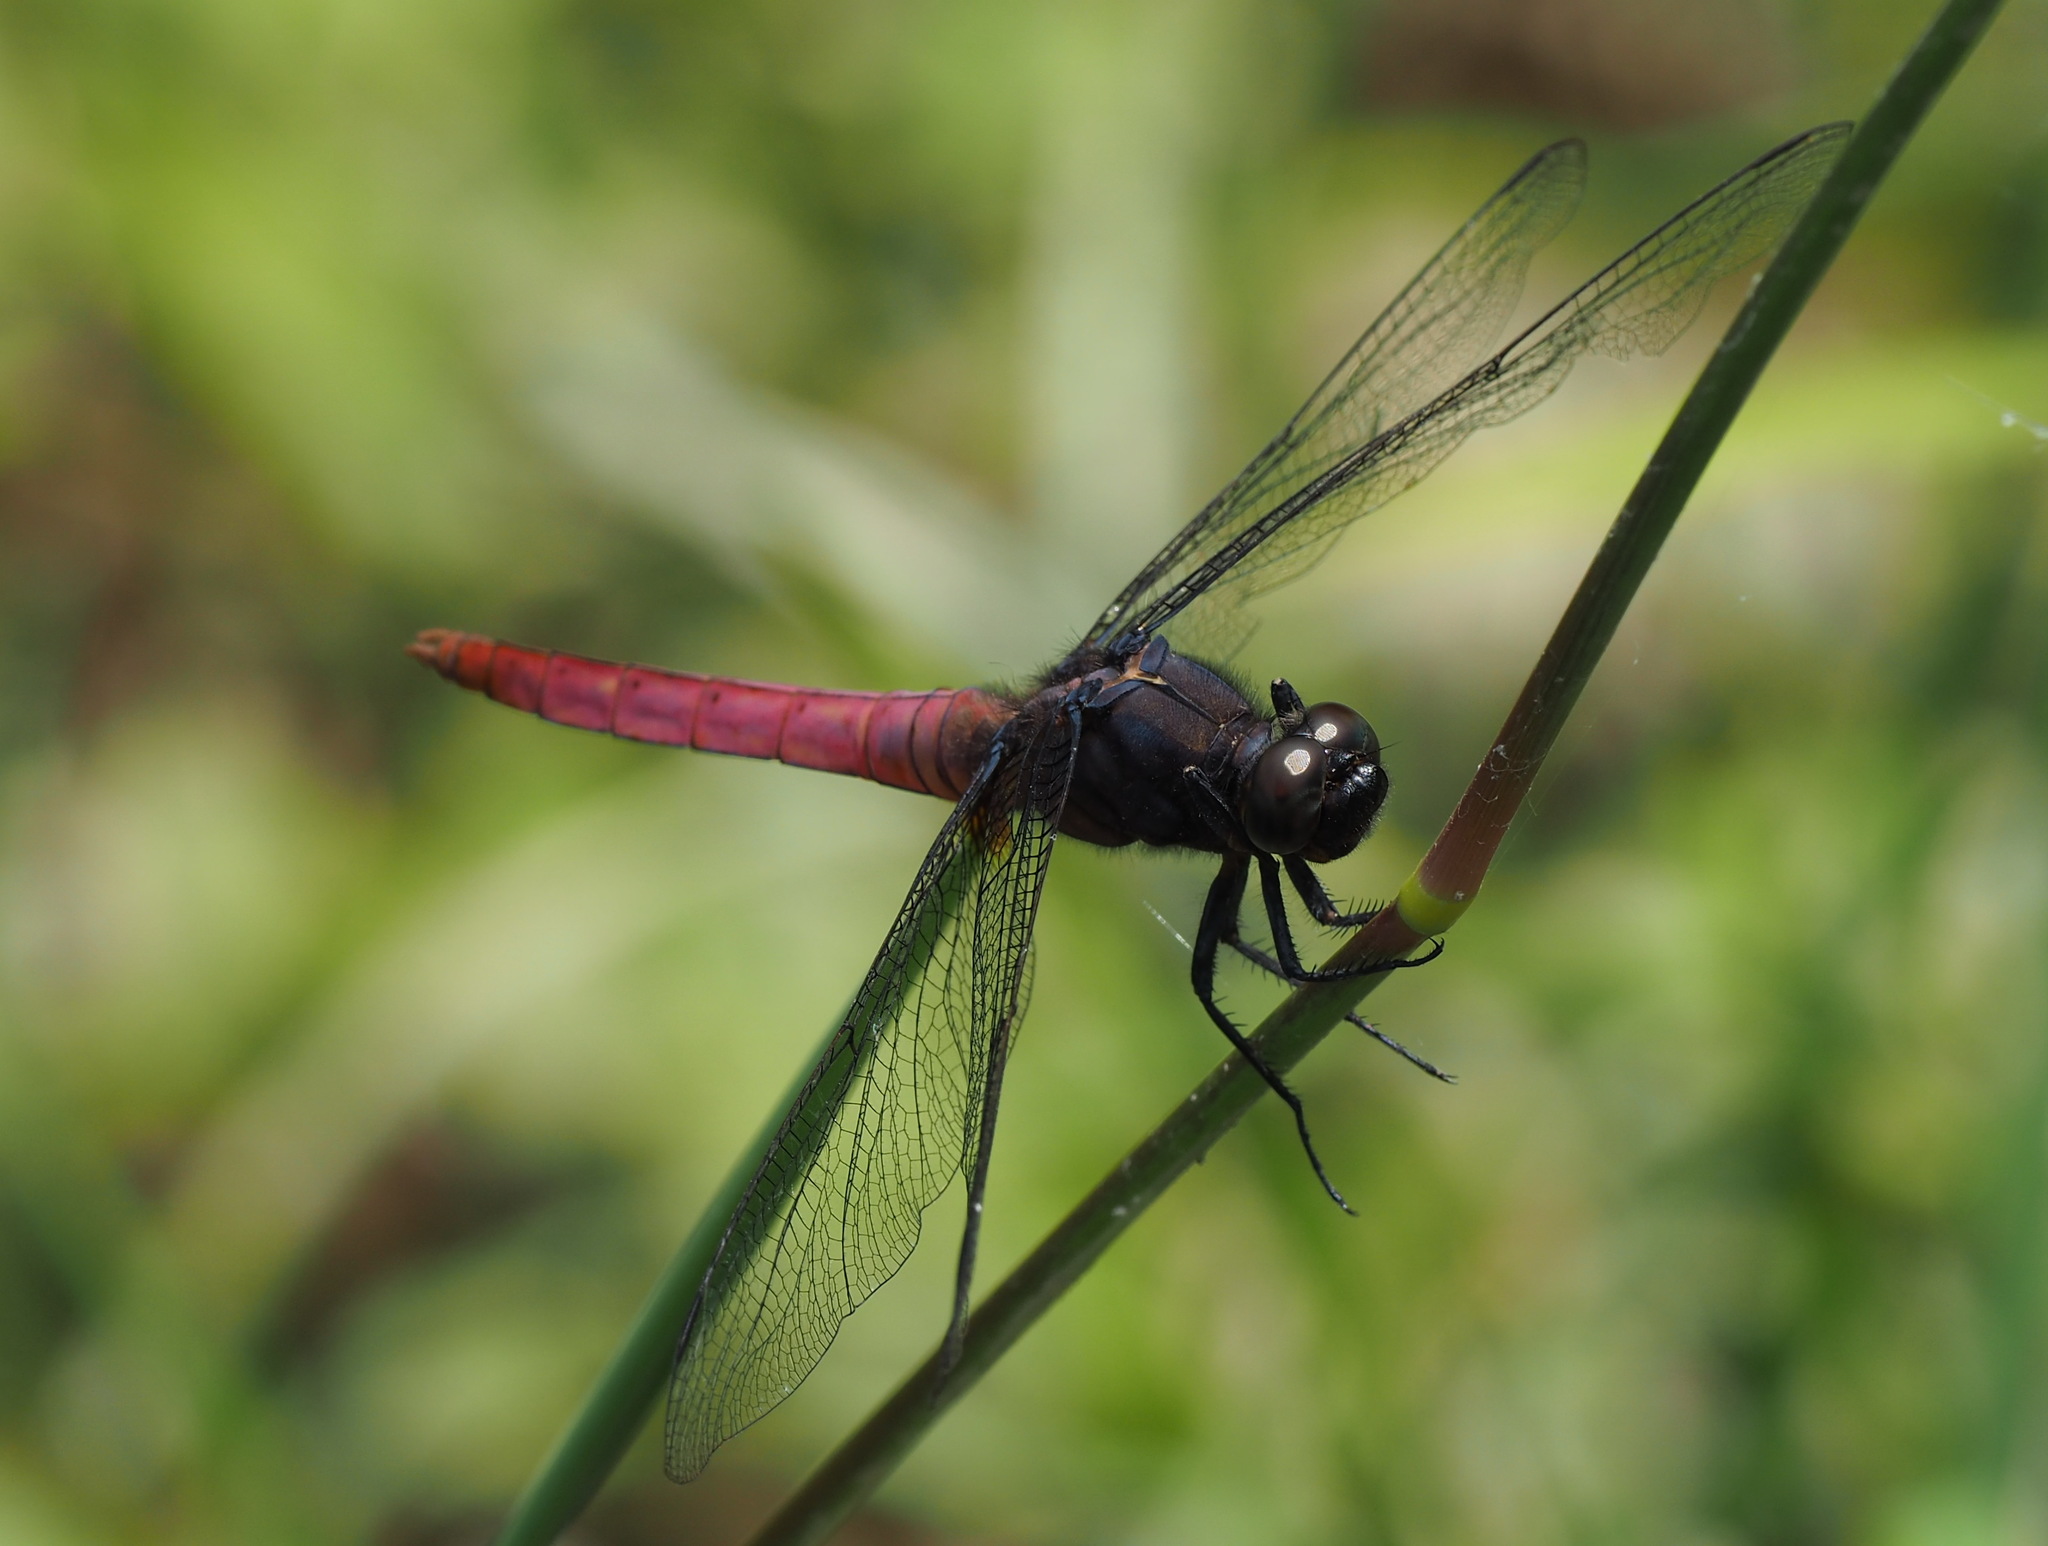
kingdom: Animalia
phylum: Arthropoda
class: Insecta
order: Odonata
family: Libellulidae
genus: Orthetrum
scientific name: Orthetrum pruinosum
